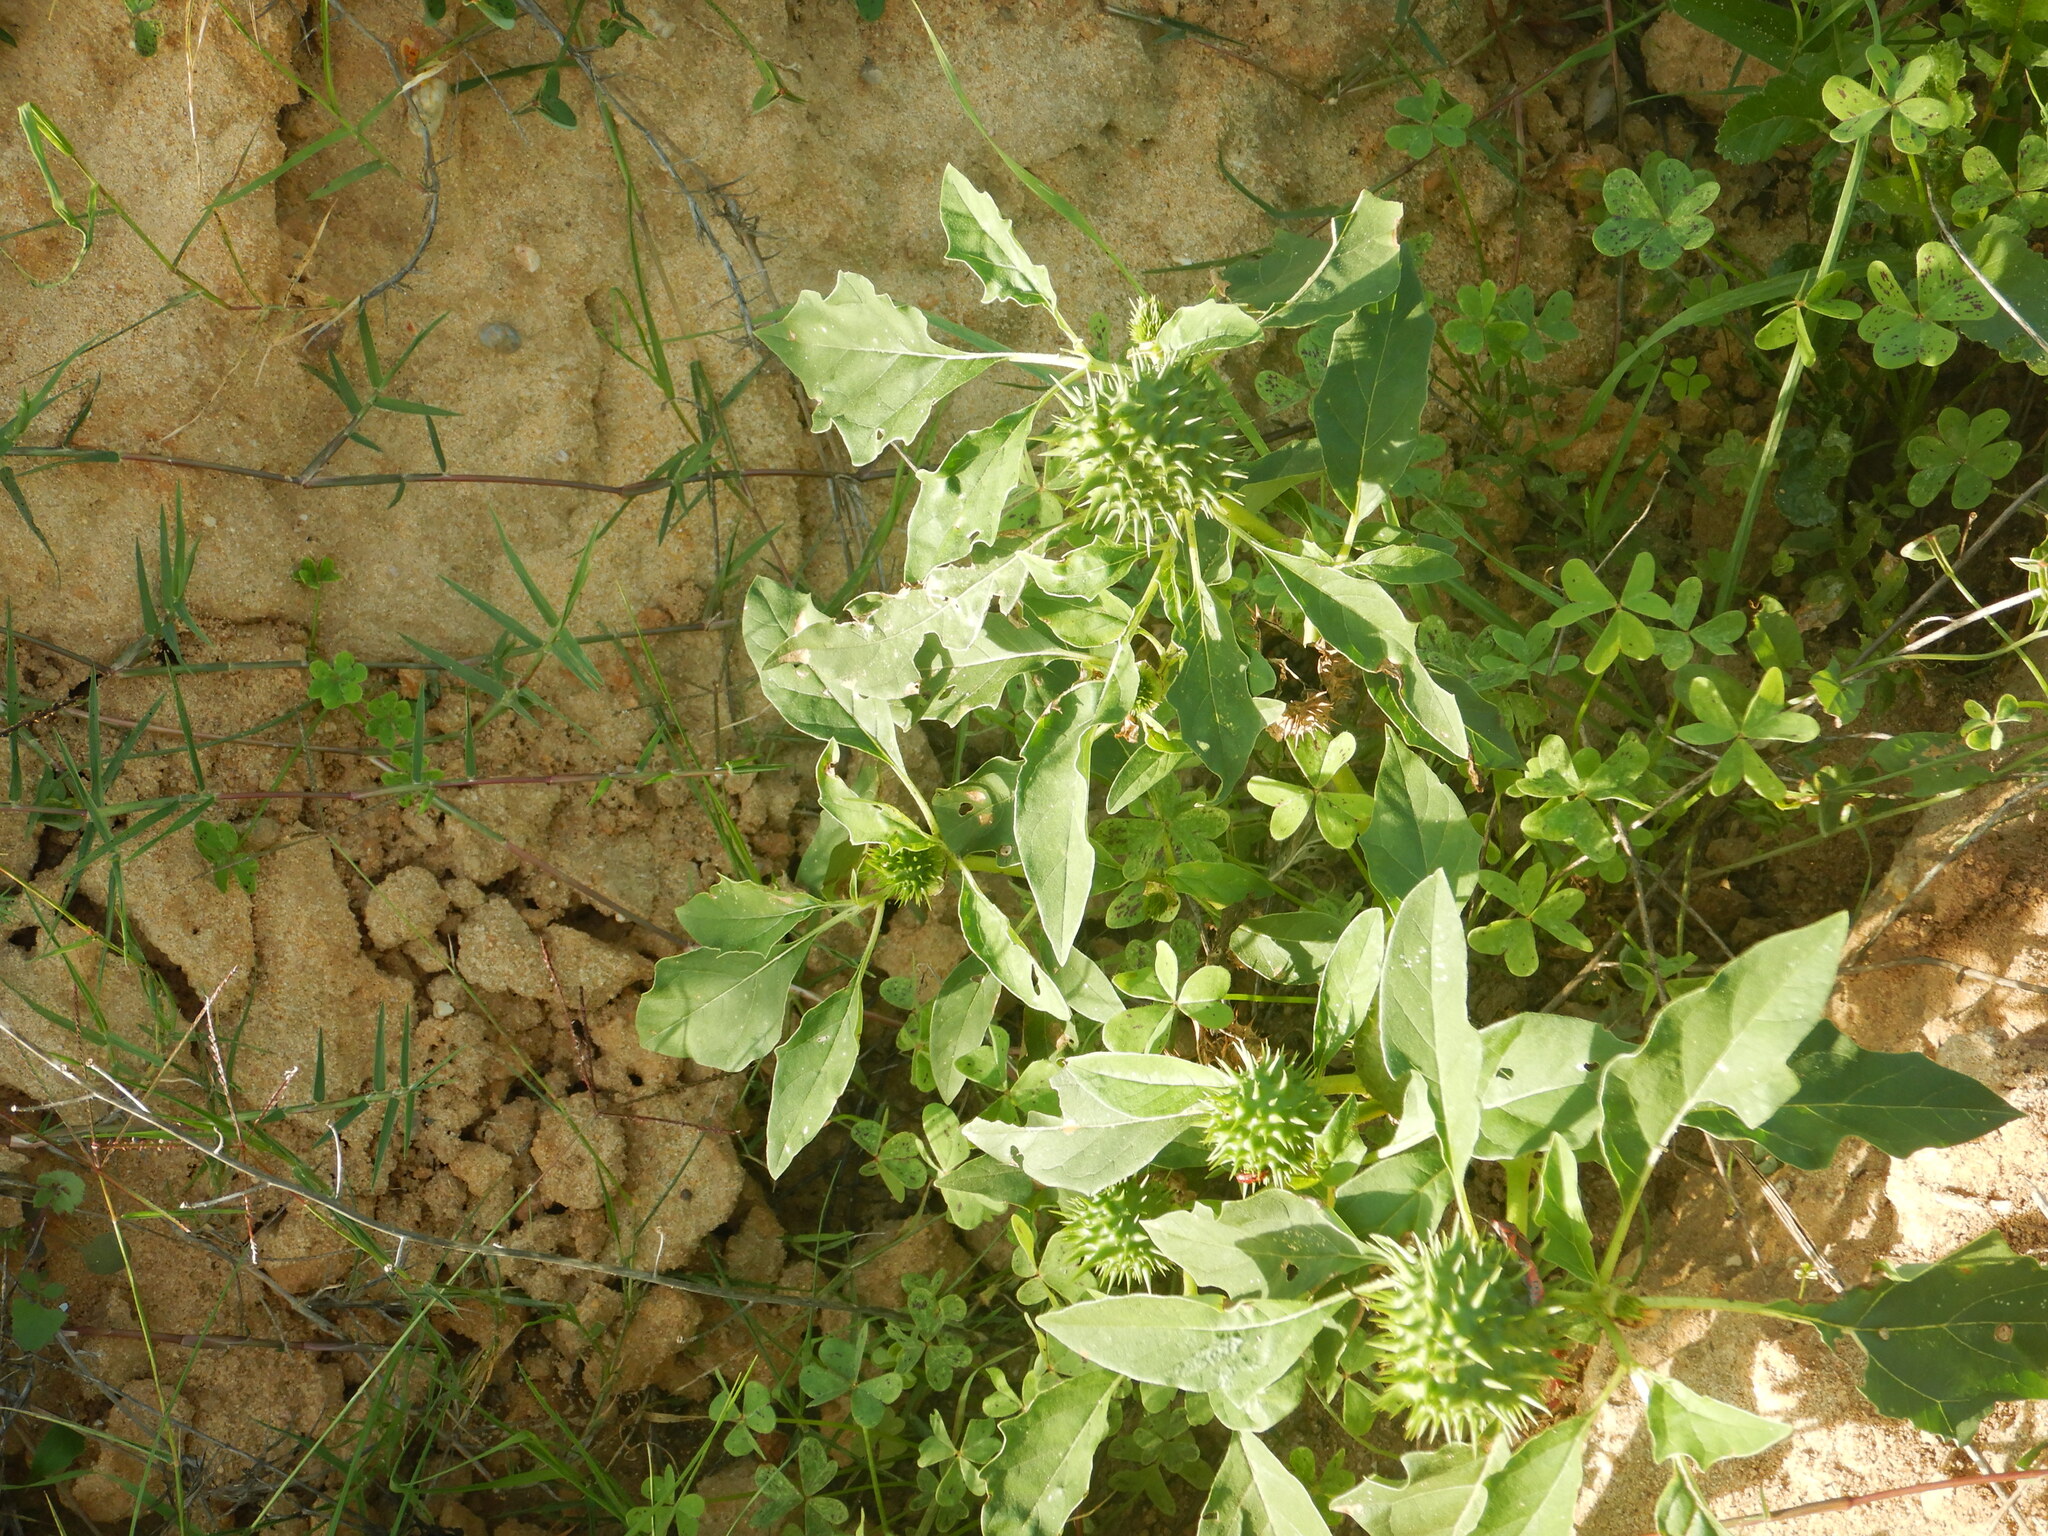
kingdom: Plantae
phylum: Tracheophyta
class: Magnoliopsida
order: Solanales
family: Solanaceae
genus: Datura
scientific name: Datura stramonium
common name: Thorn-apple
